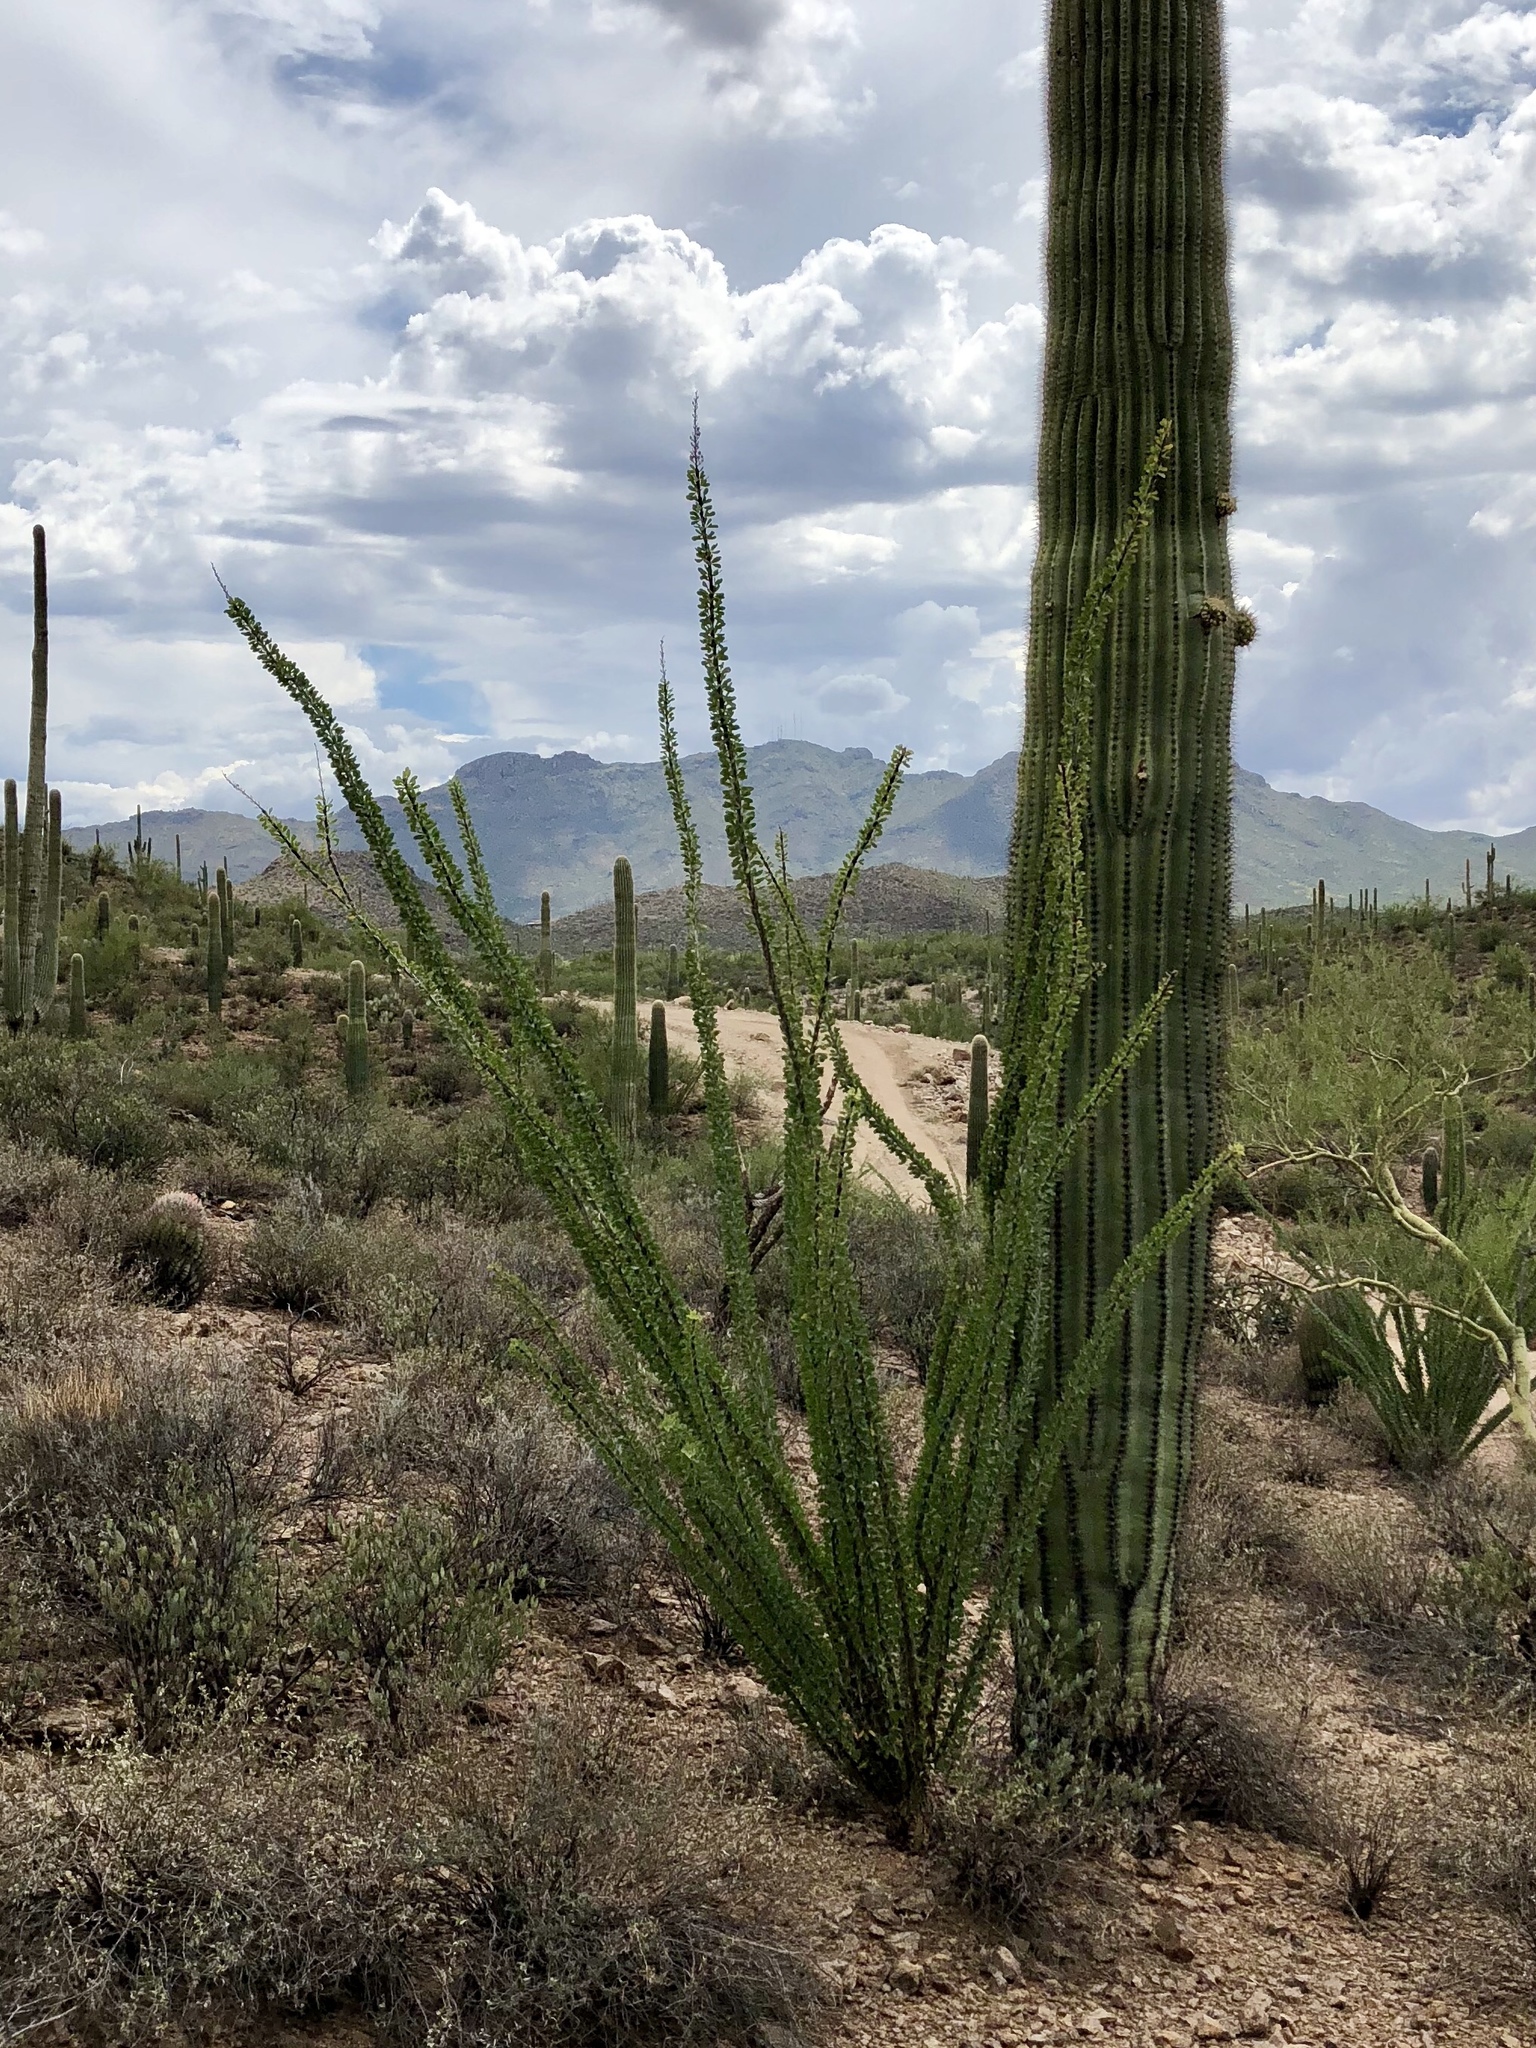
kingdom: Plantae
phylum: Tracheophyta
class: Magnoliopsida
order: Ericales
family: Fouquieriaceae
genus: Fouquieria
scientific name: Fouquieria splendens
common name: Vine-cactus
